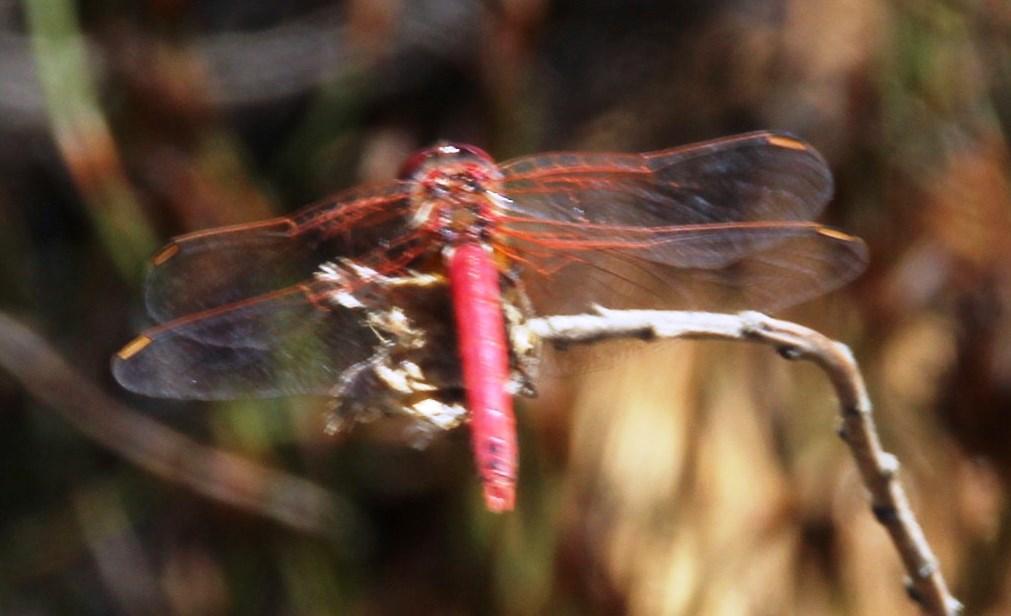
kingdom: Animalia
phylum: Arthropoda
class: Insecta
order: Odonata
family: Libellulidae
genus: Sympetrum
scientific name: Sympetrum fonscolombii
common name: Red-veined darter
